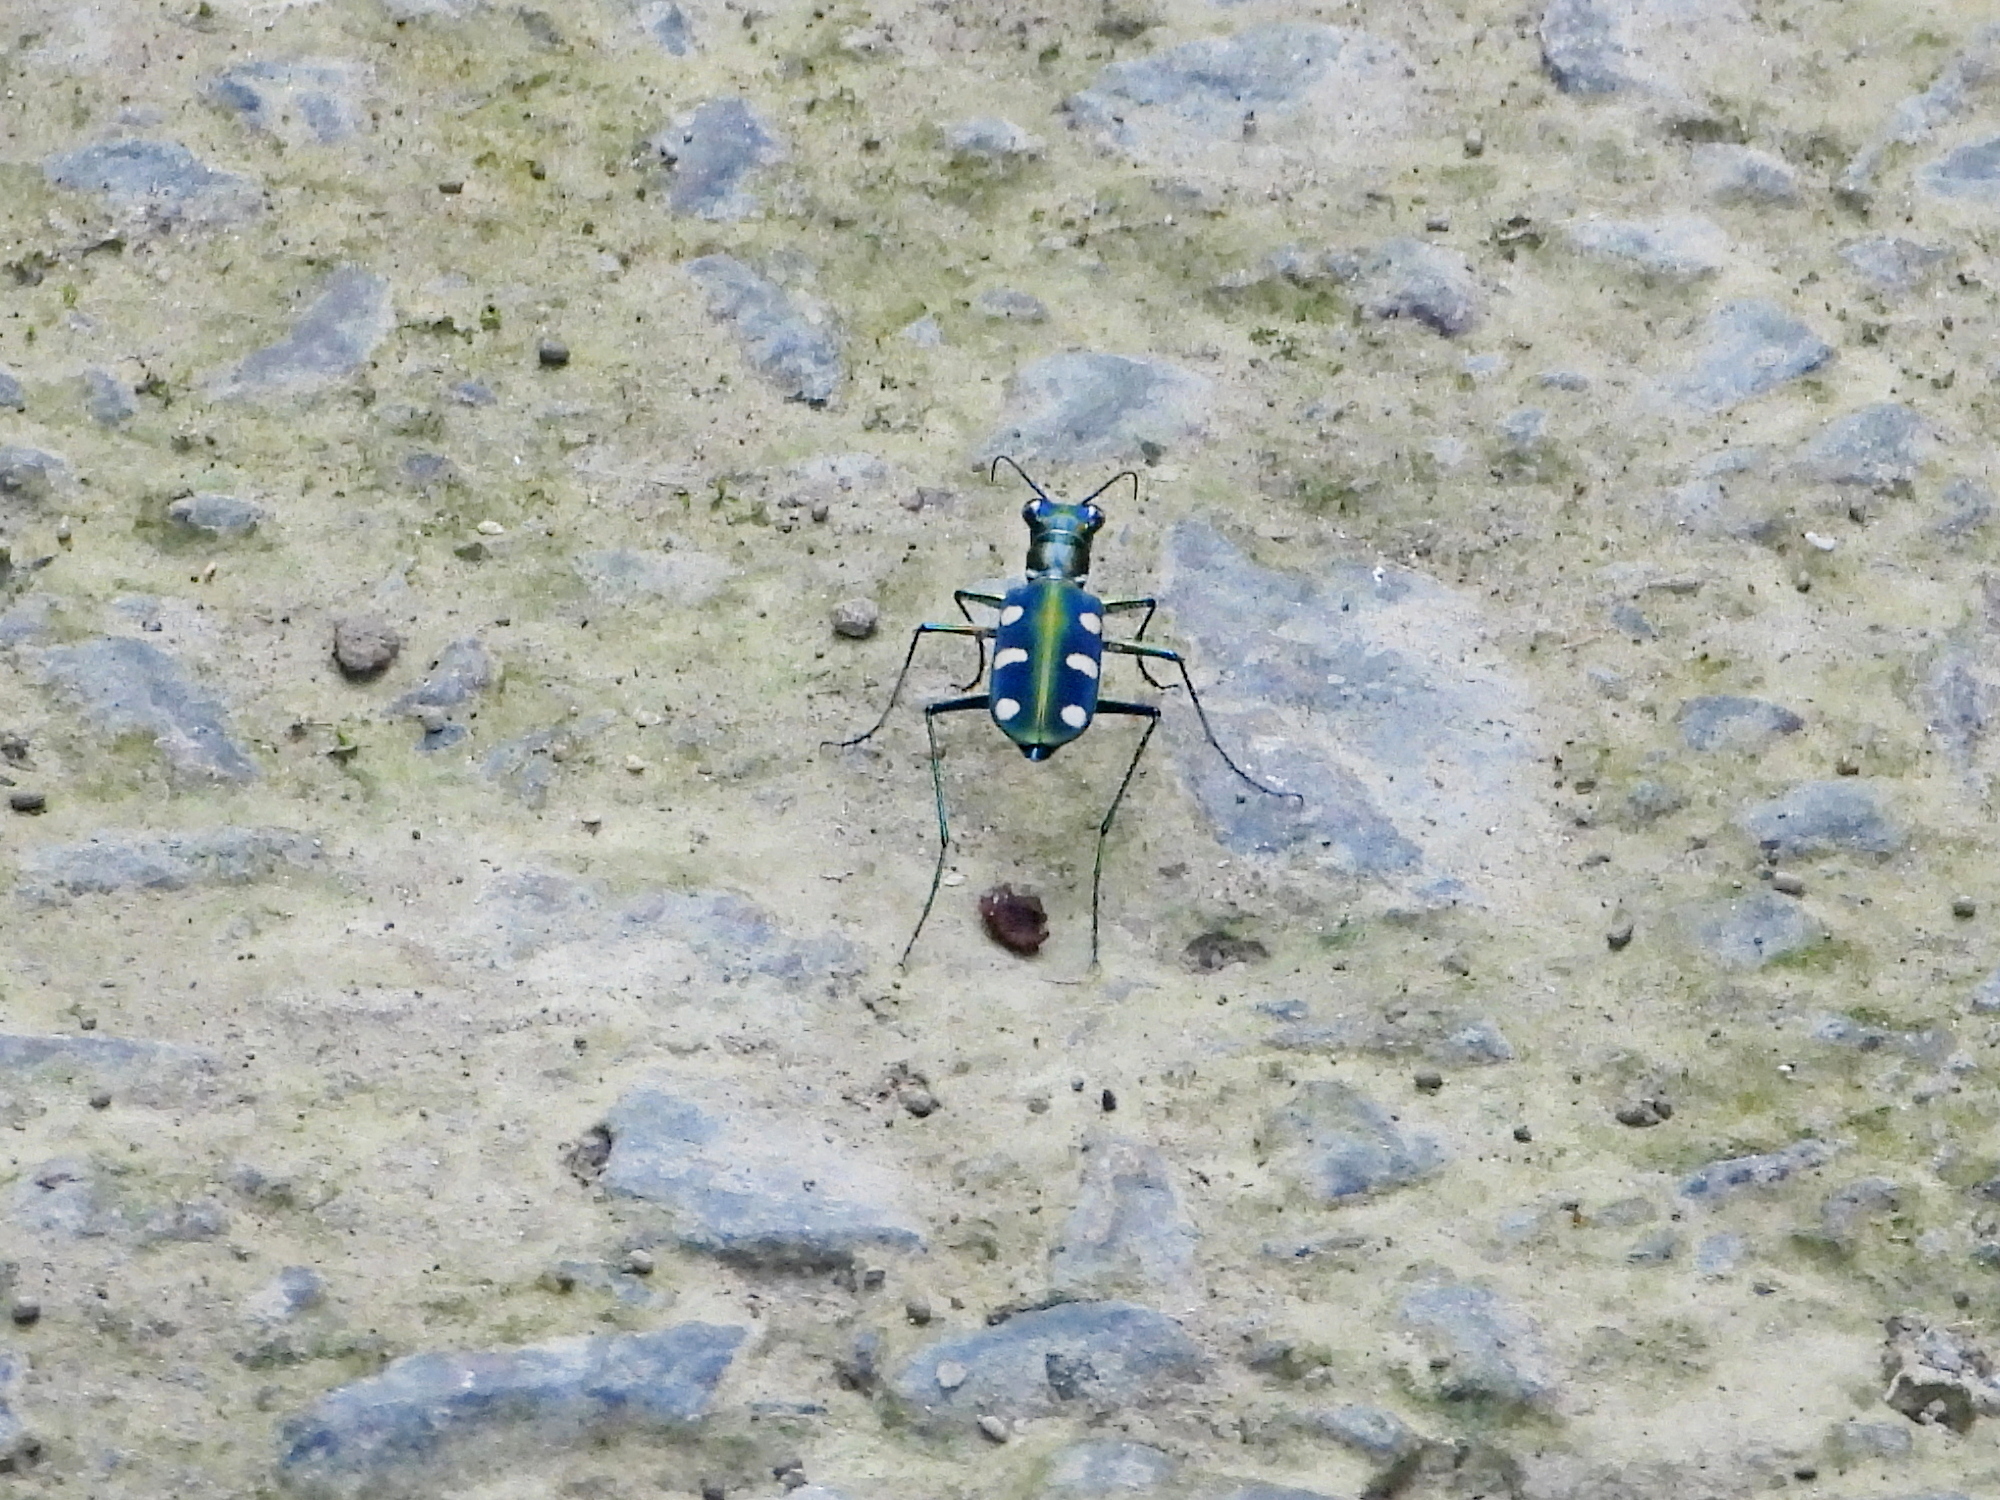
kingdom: Animalia
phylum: Arthropoda
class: Insecta
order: Coleoptera
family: Carabidae
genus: Cicindela
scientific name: Cicindela batesi
